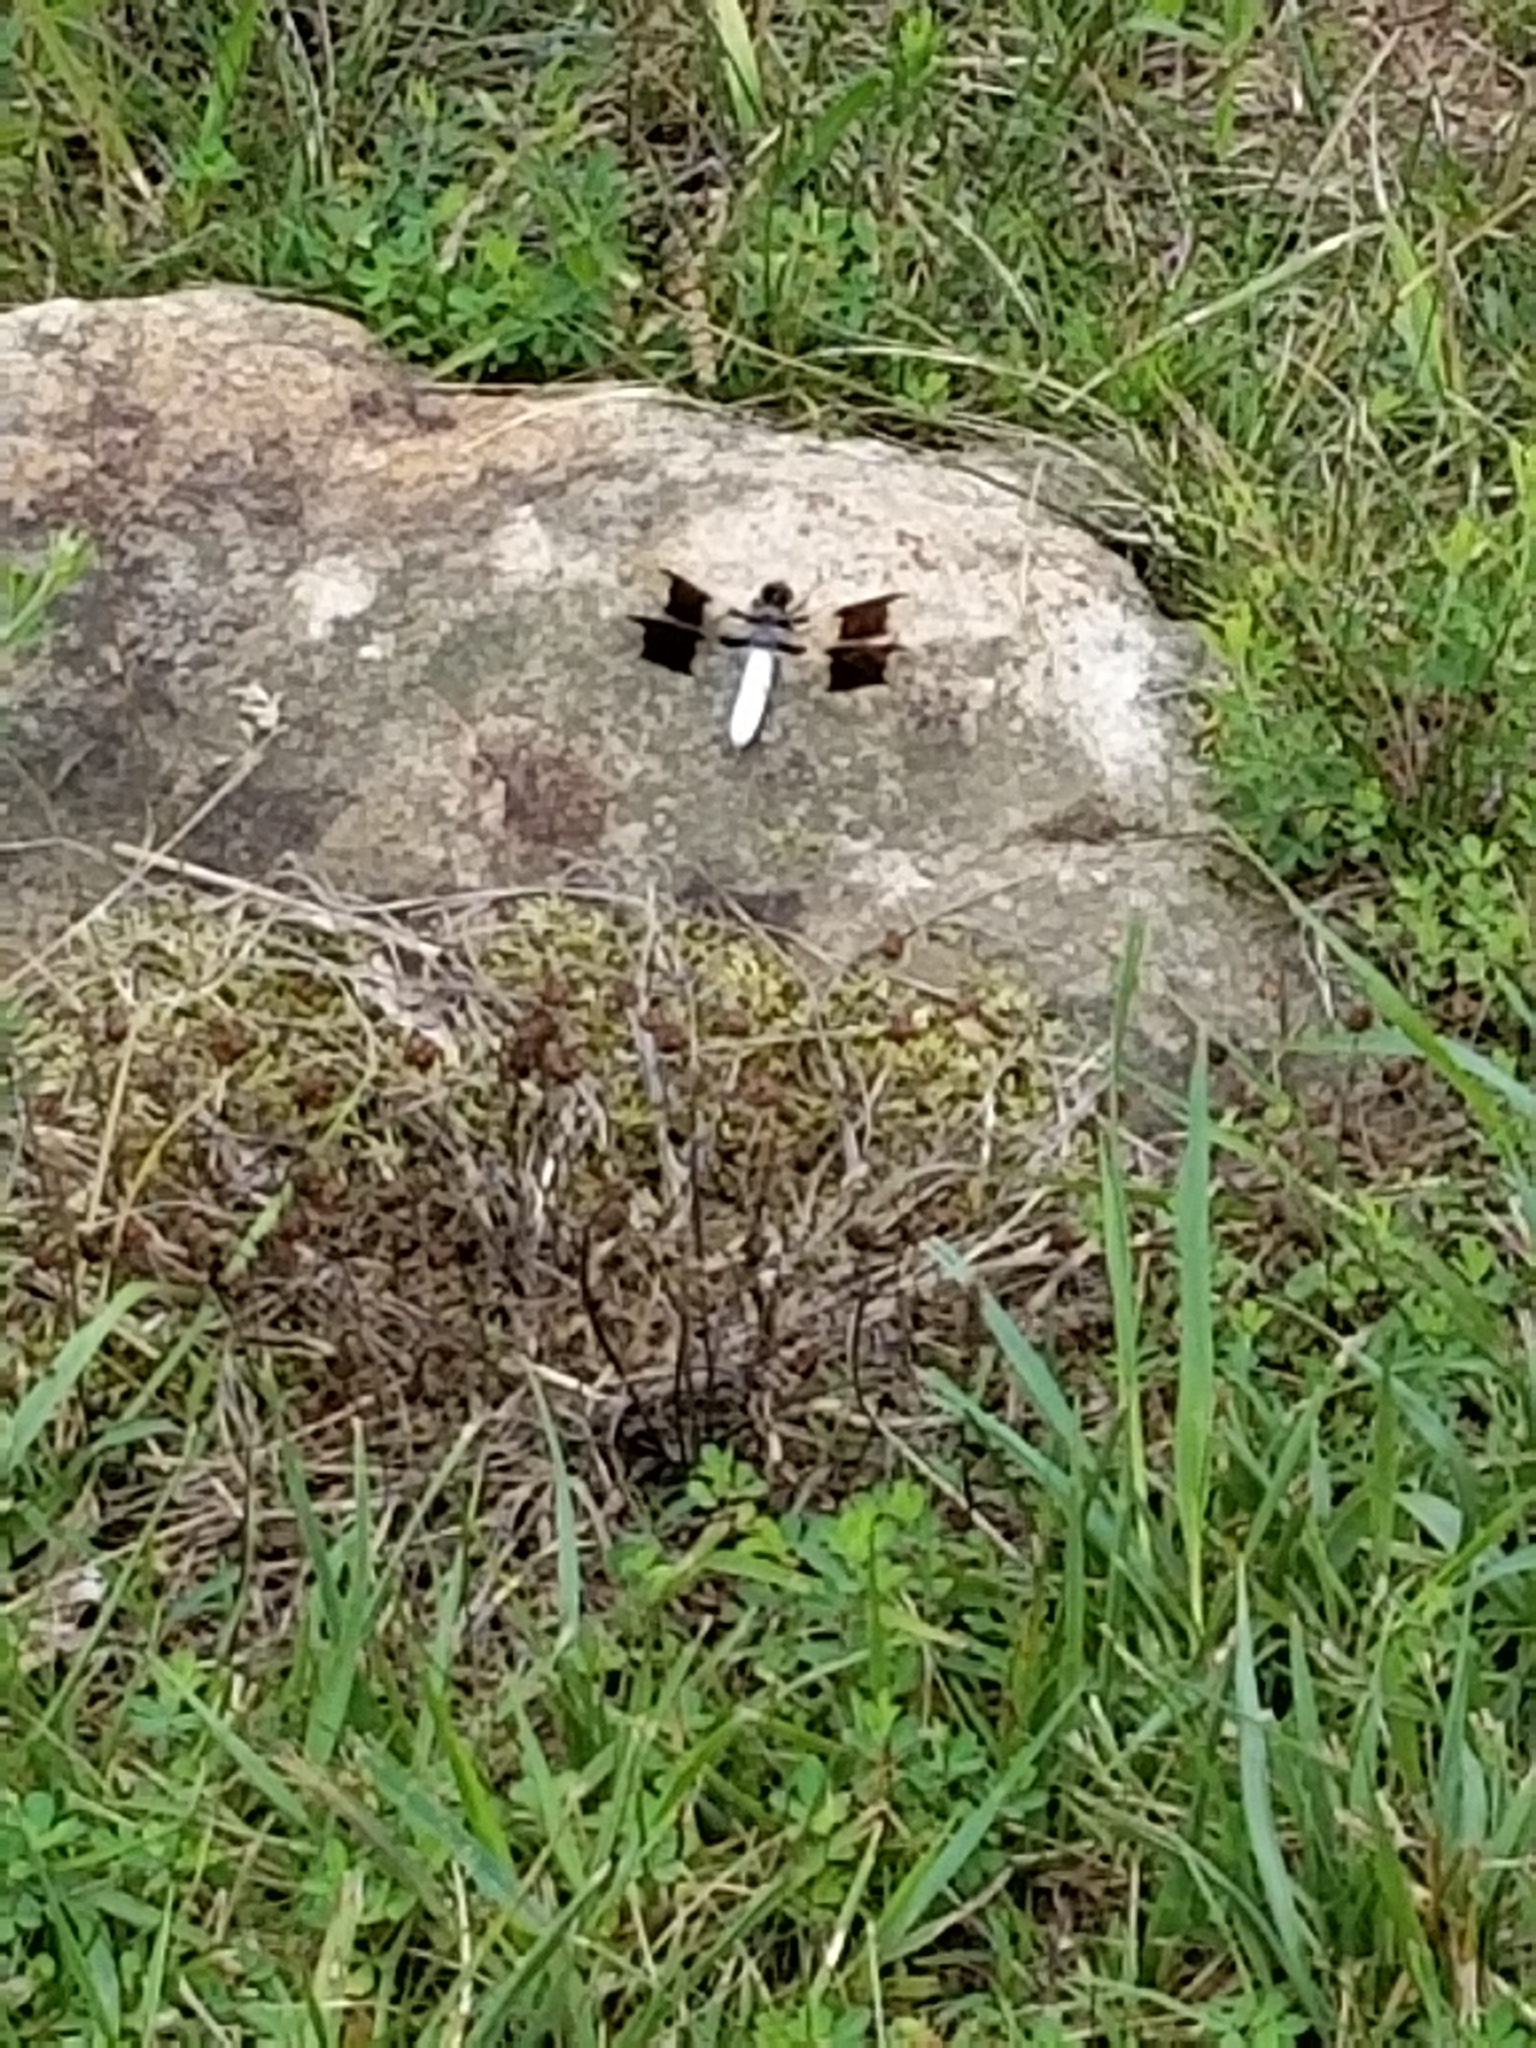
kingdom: Animalia
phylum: Arthropoda
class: Insecta
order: Odonata
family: Libellulidae
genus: Plathemis
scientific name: Plathemis lydia
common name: Common whitetail
